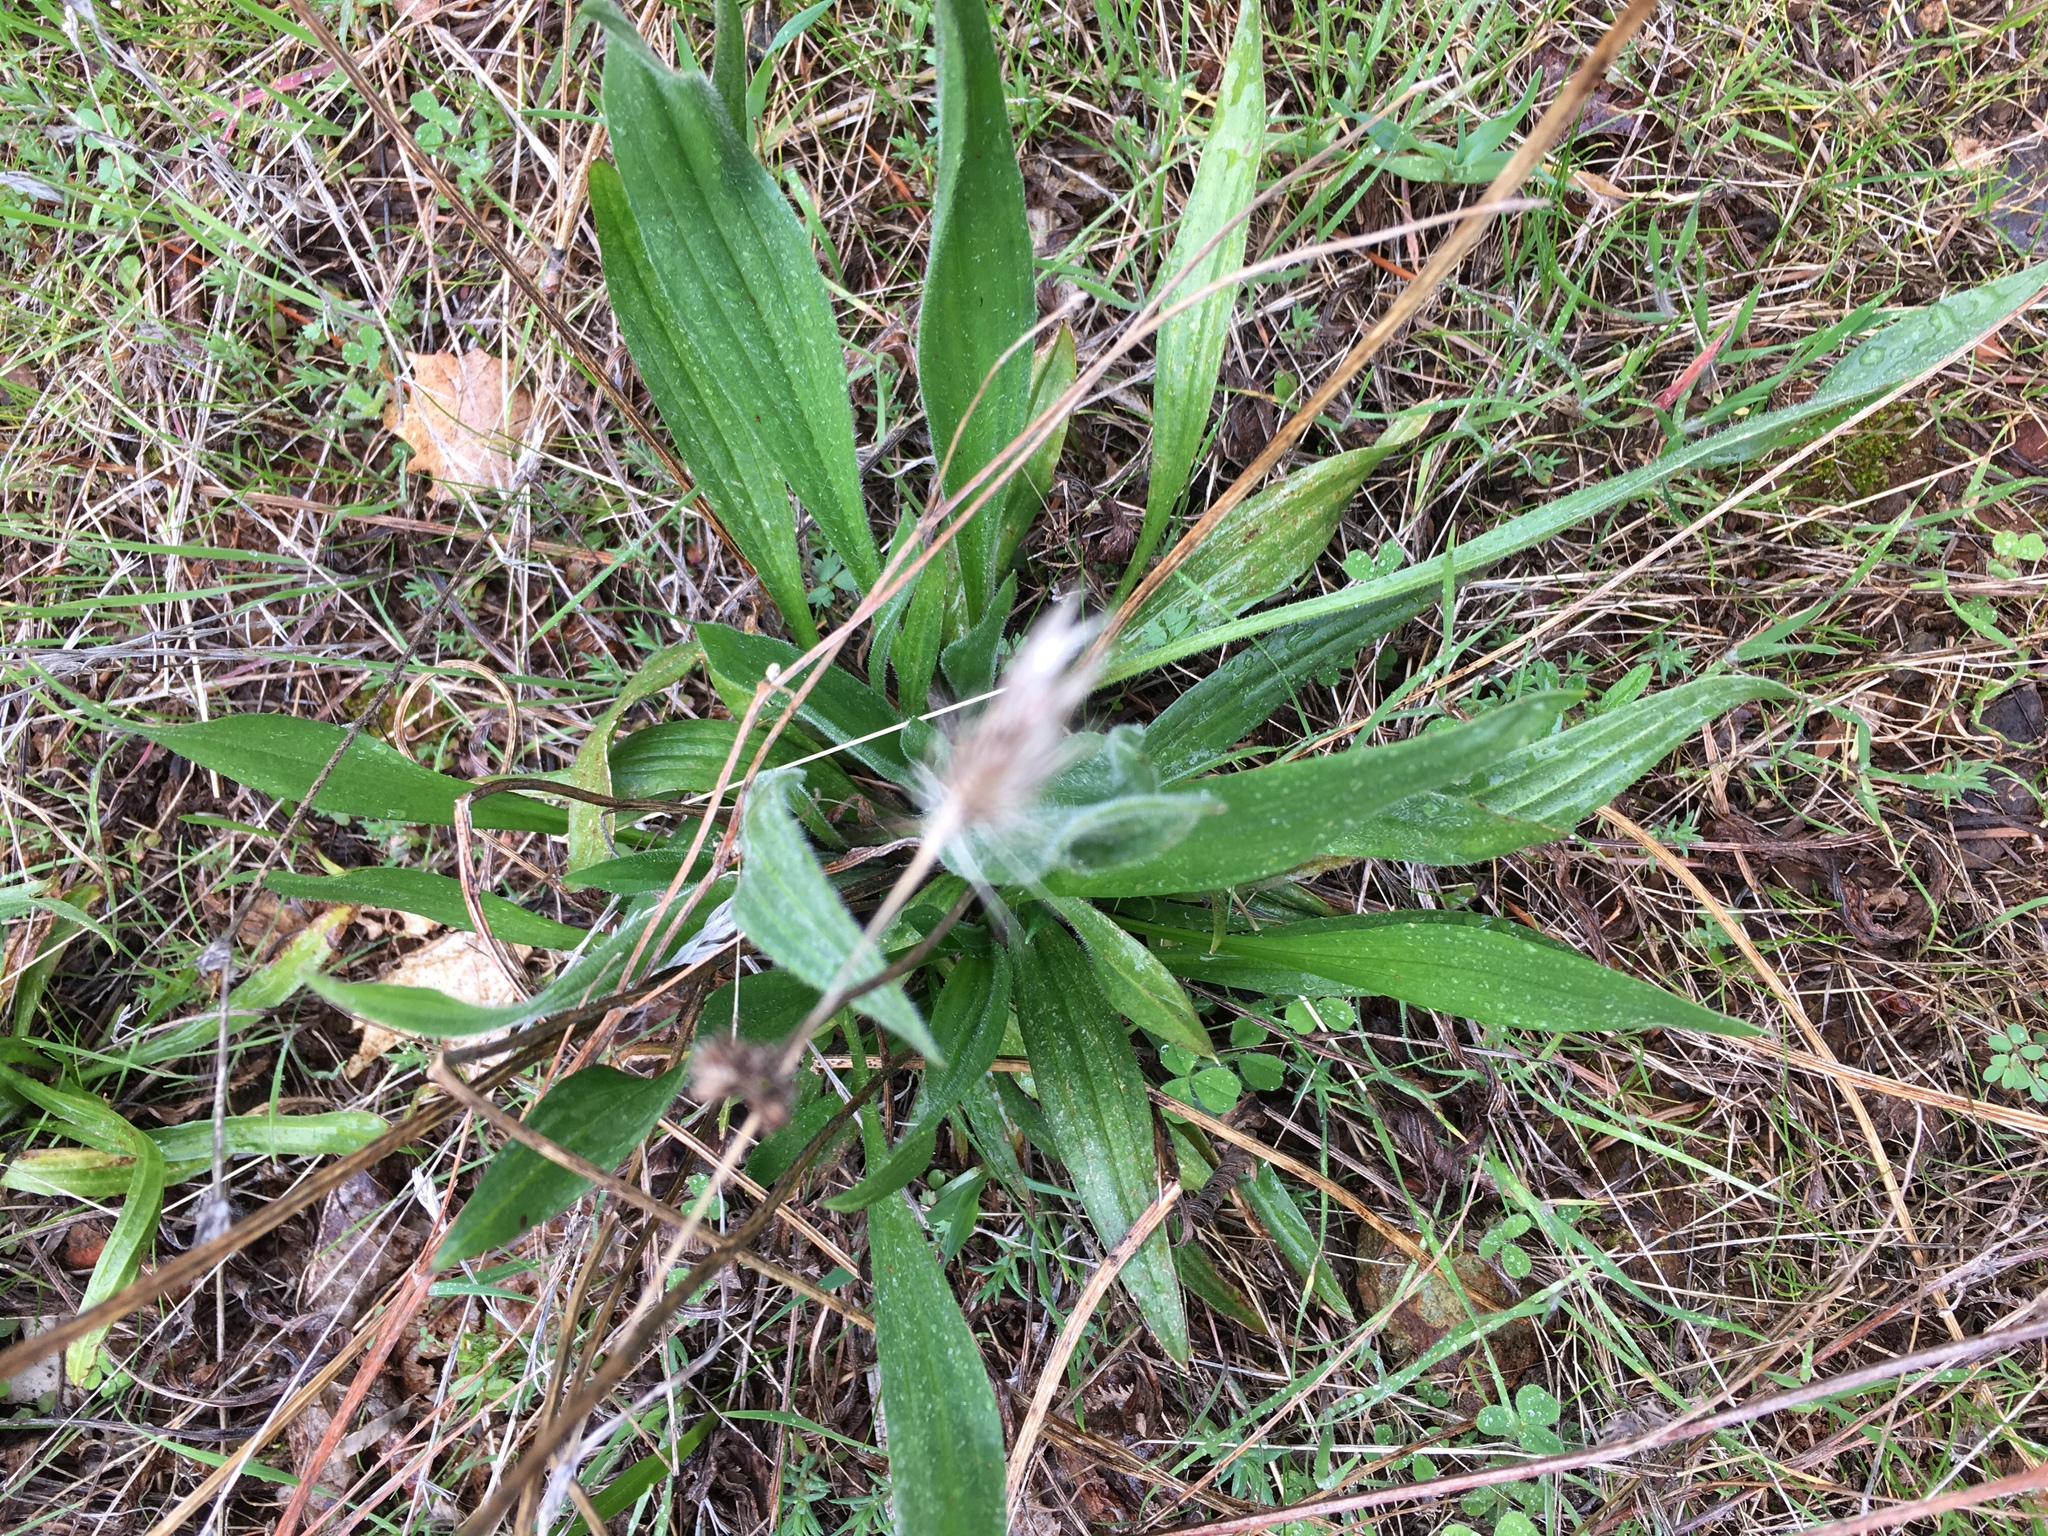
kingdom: Plantae
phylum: Tracheophyta
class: Magnoliopsida
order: Lamiales
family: Plantaginaceae
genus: Plantago
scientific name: Plantago lanceolata
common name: Ribwort plantain
